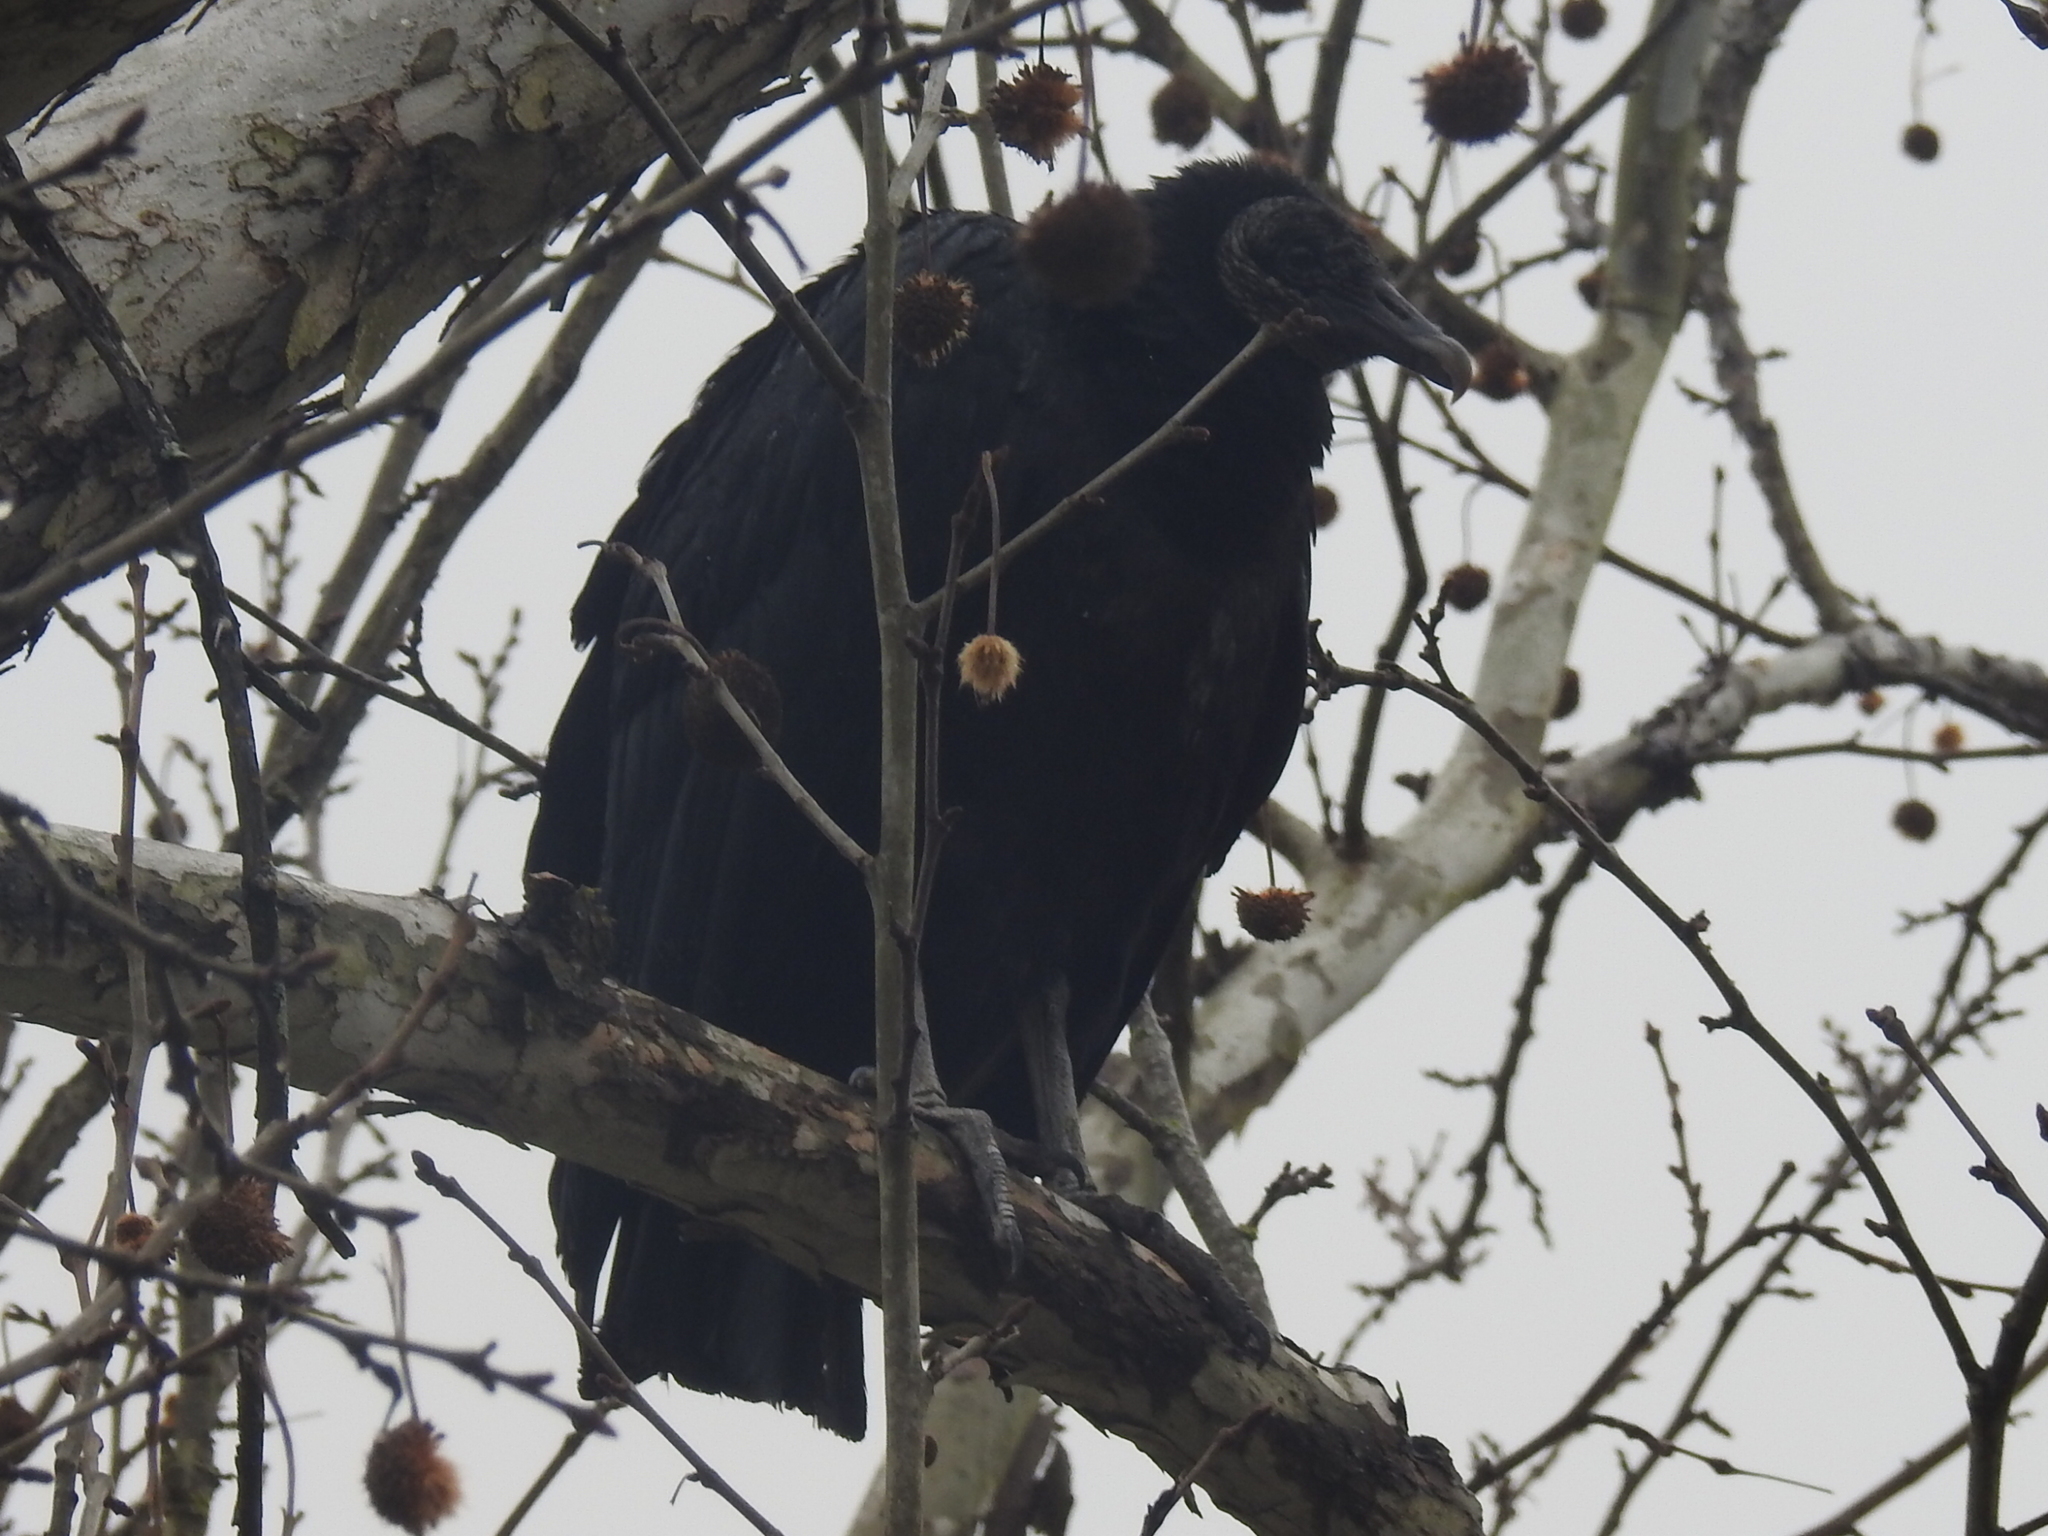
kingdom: Animalia
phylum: Chordata
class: Aves
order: Accipitriformes
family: Cathartidae
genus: Coragyps
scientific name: Coragyps atratus
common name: Black vulture
